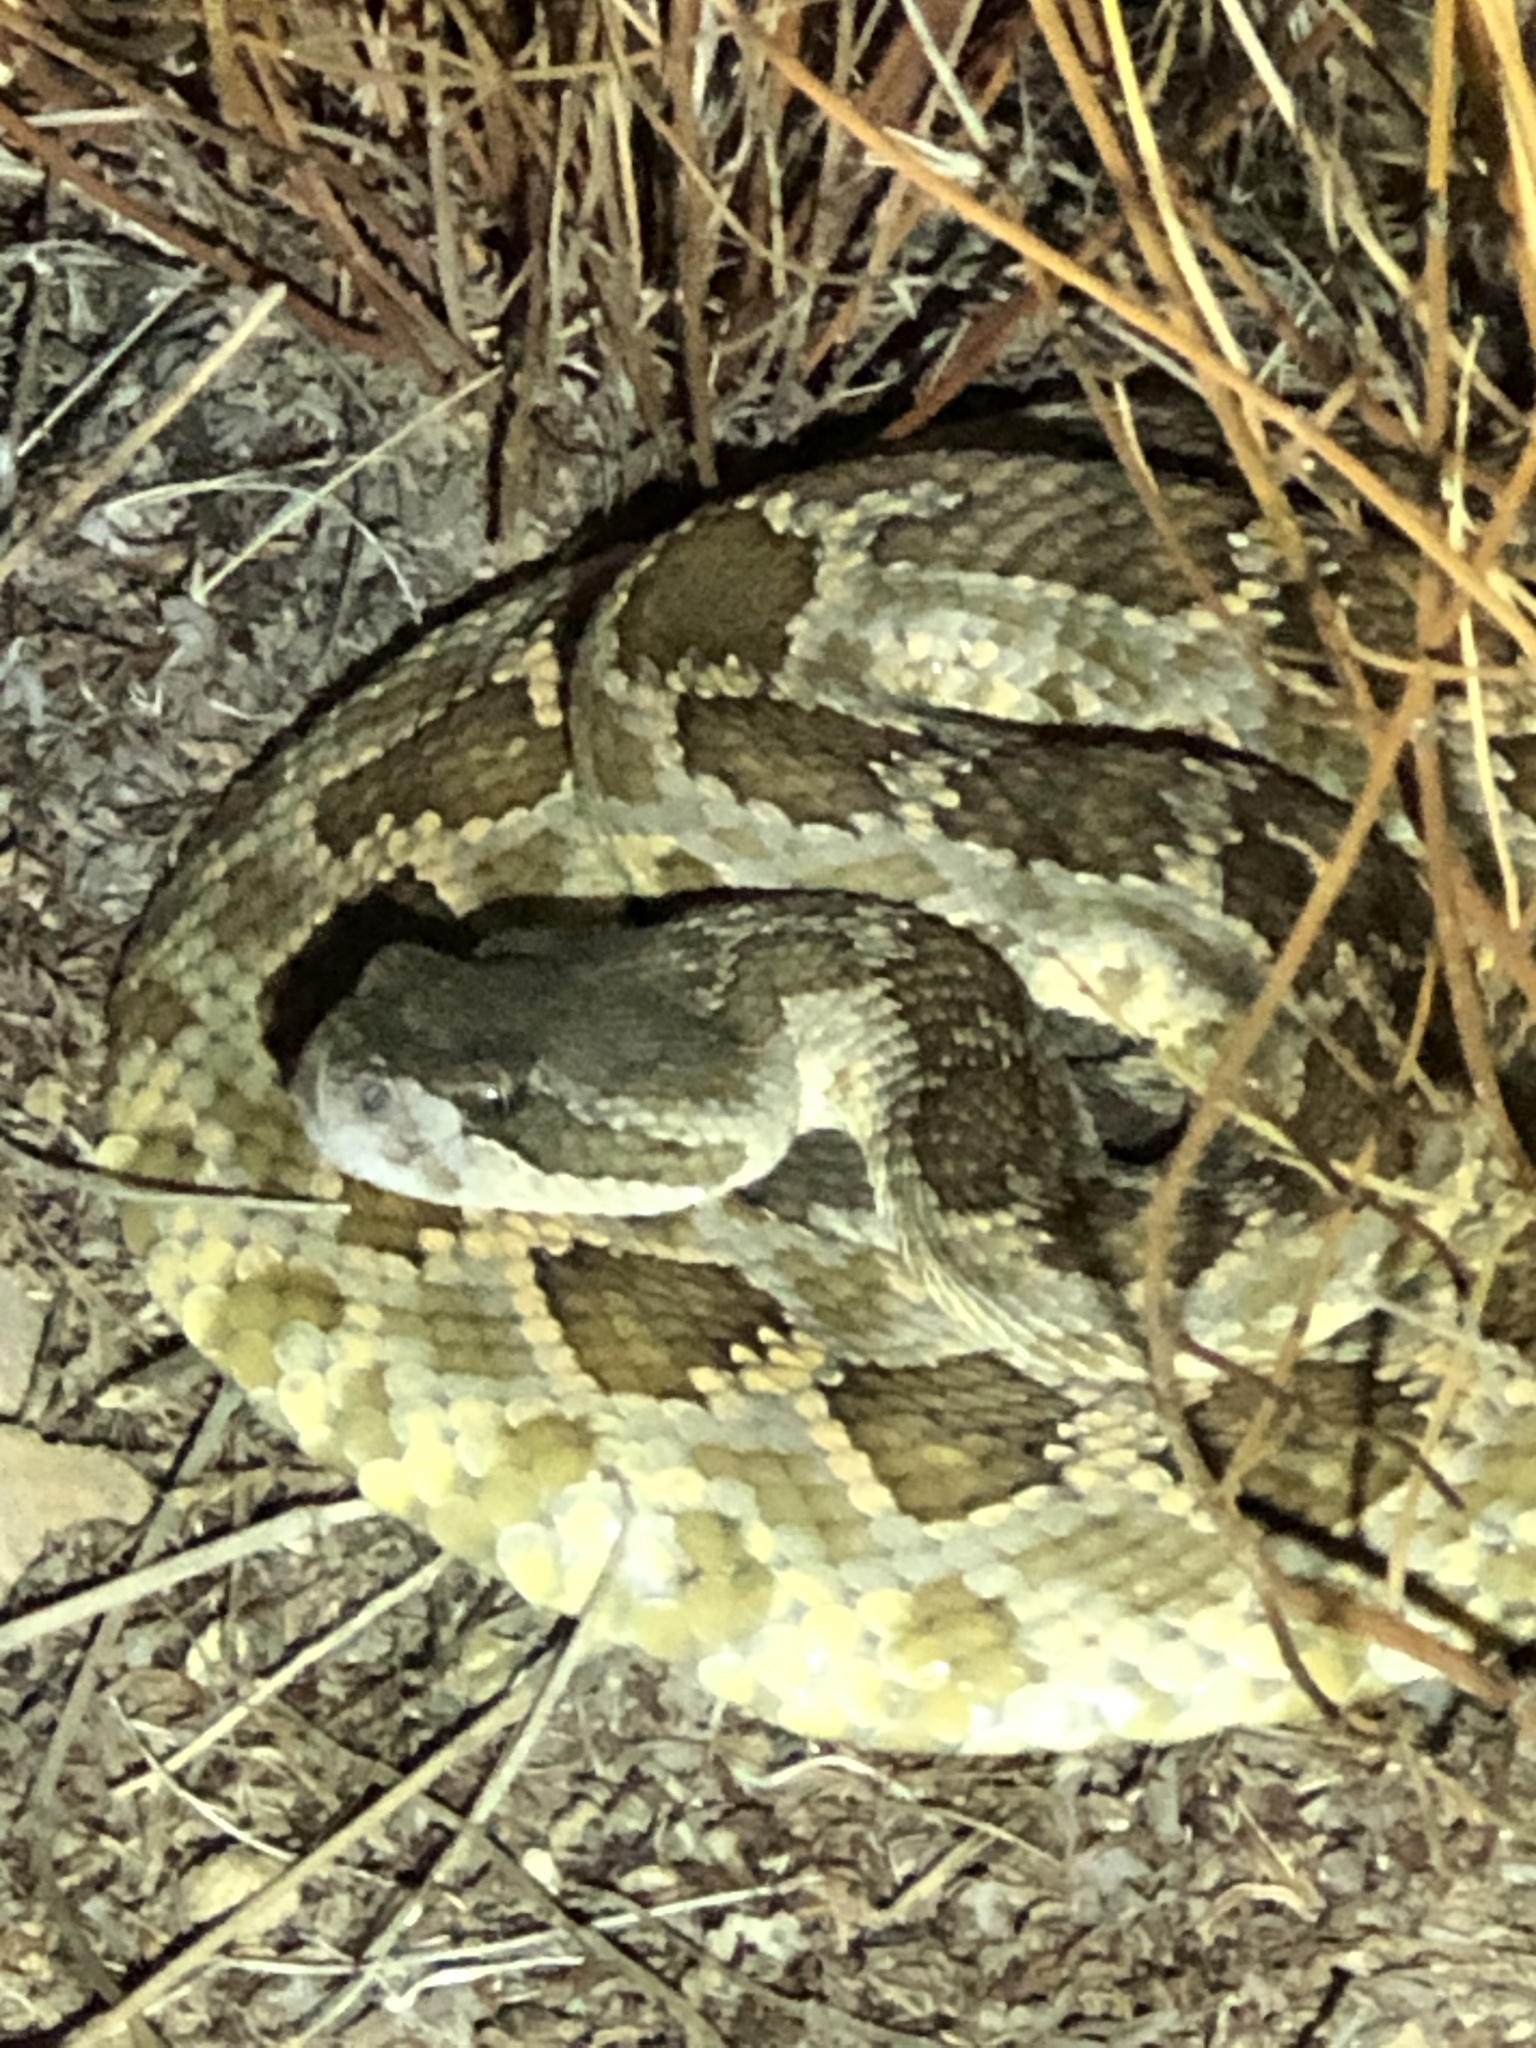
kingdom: Animalia
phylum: Chordata
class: Squamata
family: Viperidae
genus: Crotalus
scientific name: Crotalus oreganus
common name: Abyssus
